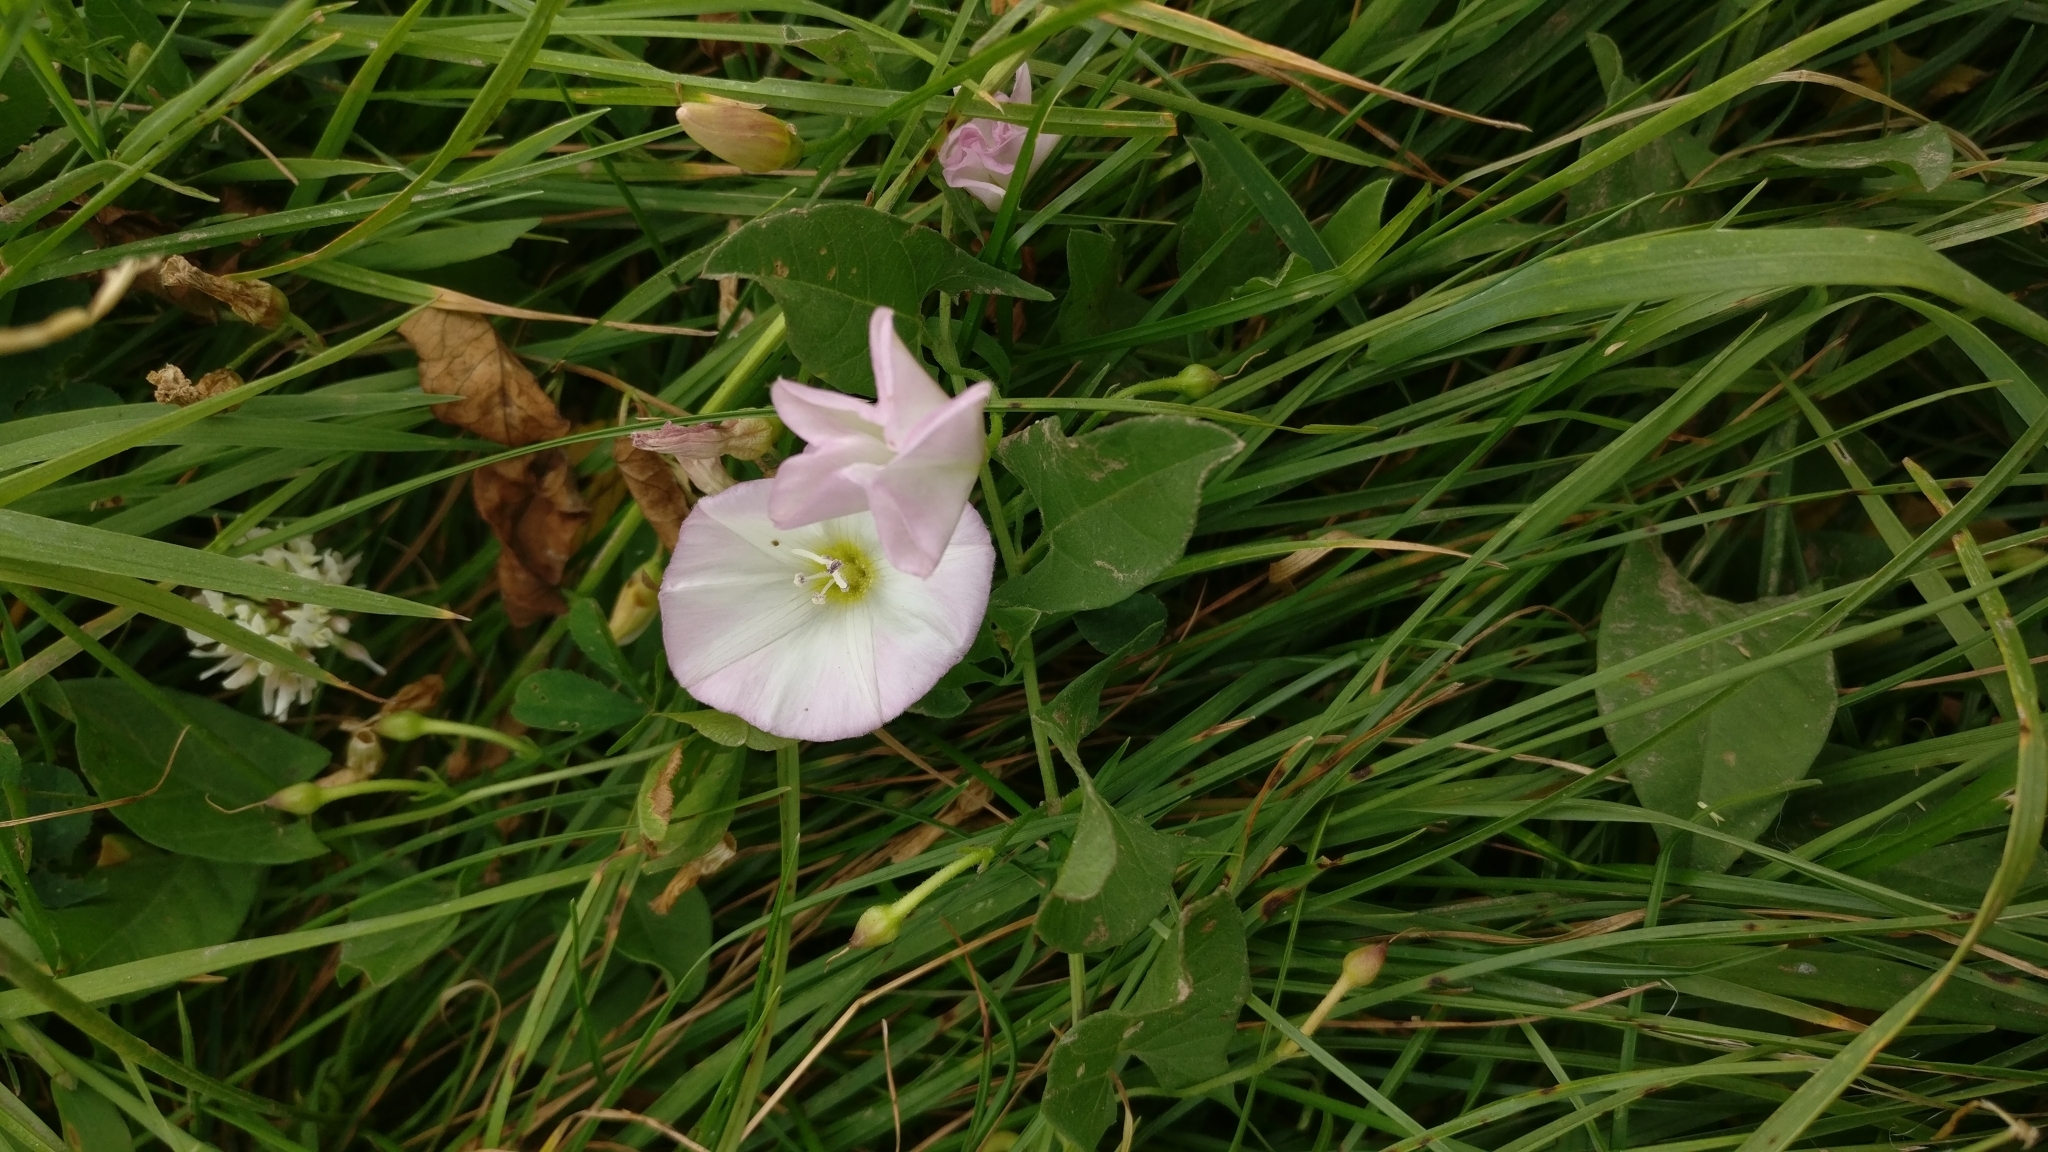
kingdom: Plantae
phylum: Tracheophyta
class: Magnoliopsida
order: Solanales
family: Convolvulaceae
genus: Convolvulus
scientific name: Convolvulus arvensis
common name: Field bindweed
